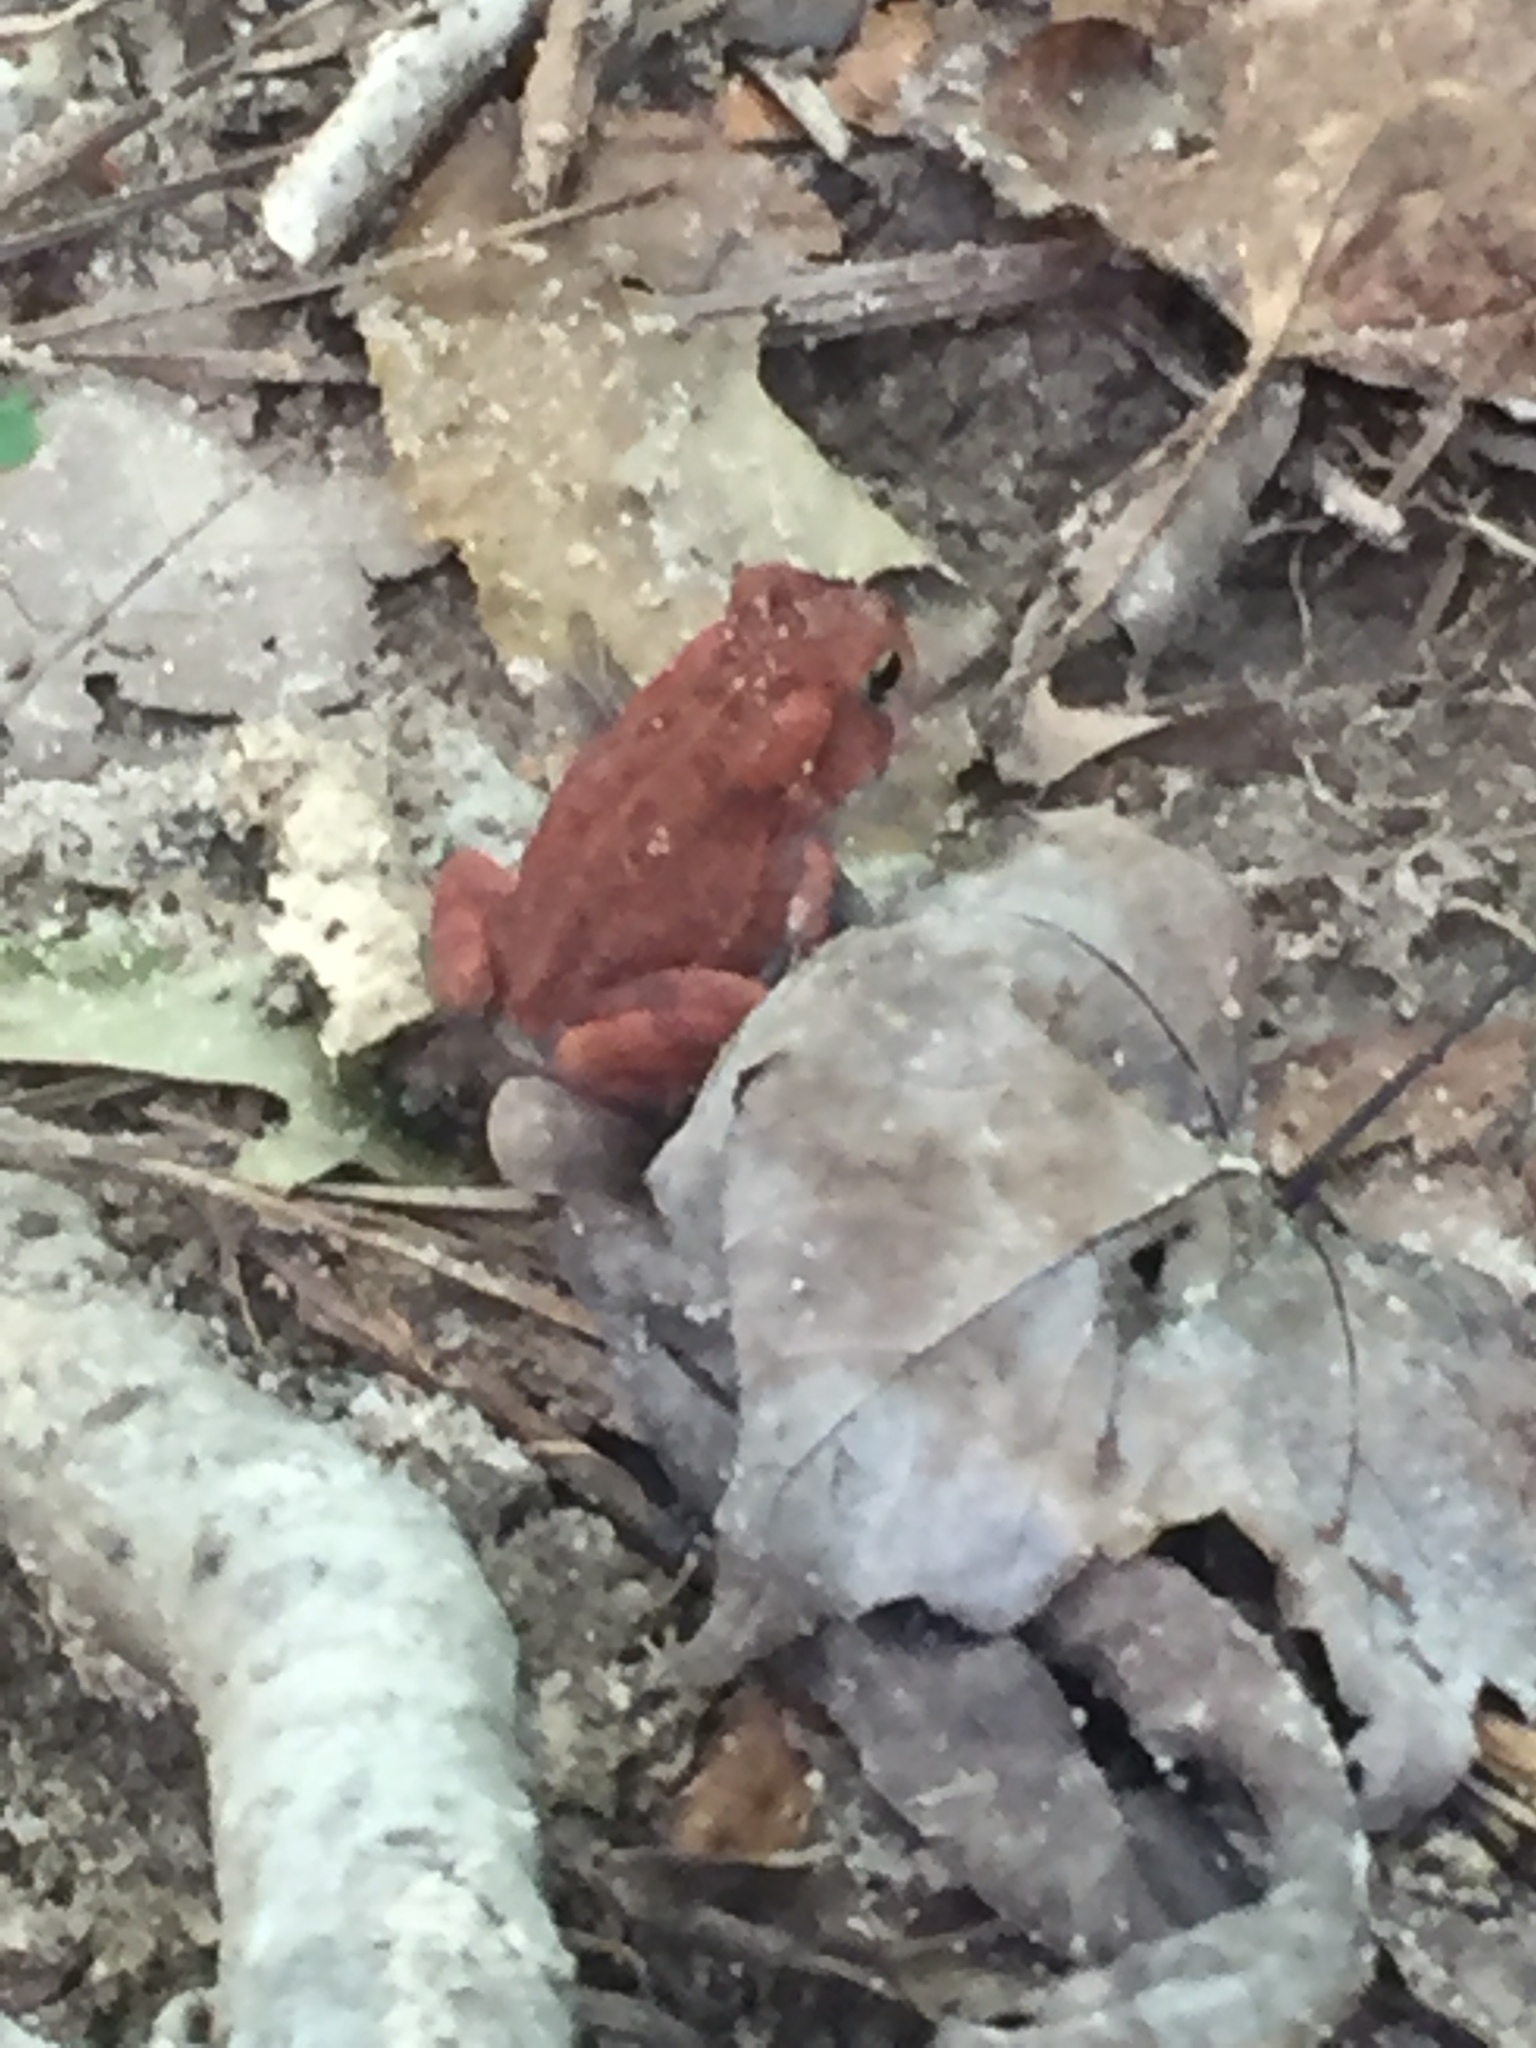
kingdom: Animalia
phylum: Chordata
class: Amphibia
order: Anura
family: Bufonidae
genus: Anaxyrus
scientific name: Anaxyrus fowleri
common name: Fowler's toad
